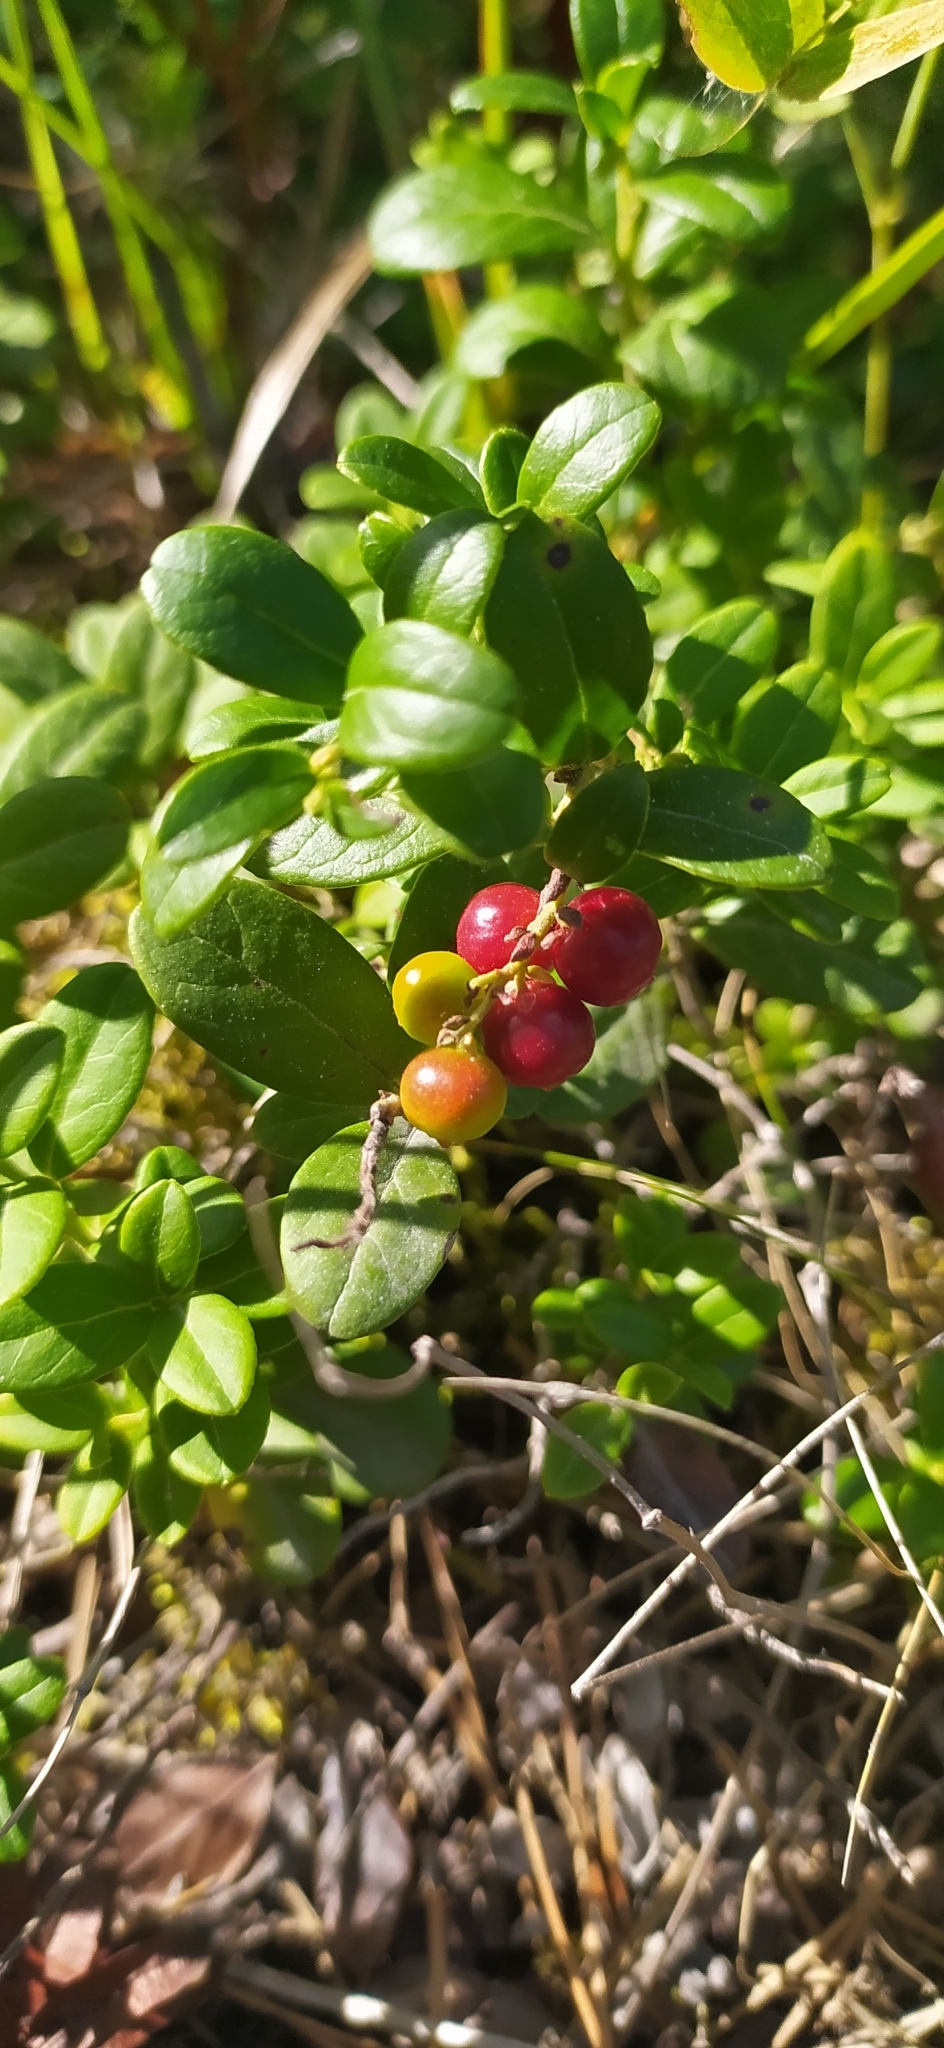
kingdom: Plantae
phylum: Tracheophyta
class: Magnoliopsida
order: Ericales
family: Ericaceae
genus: Vaccinium
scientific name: Vaccinium vitis-idaea
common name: Cowberry
